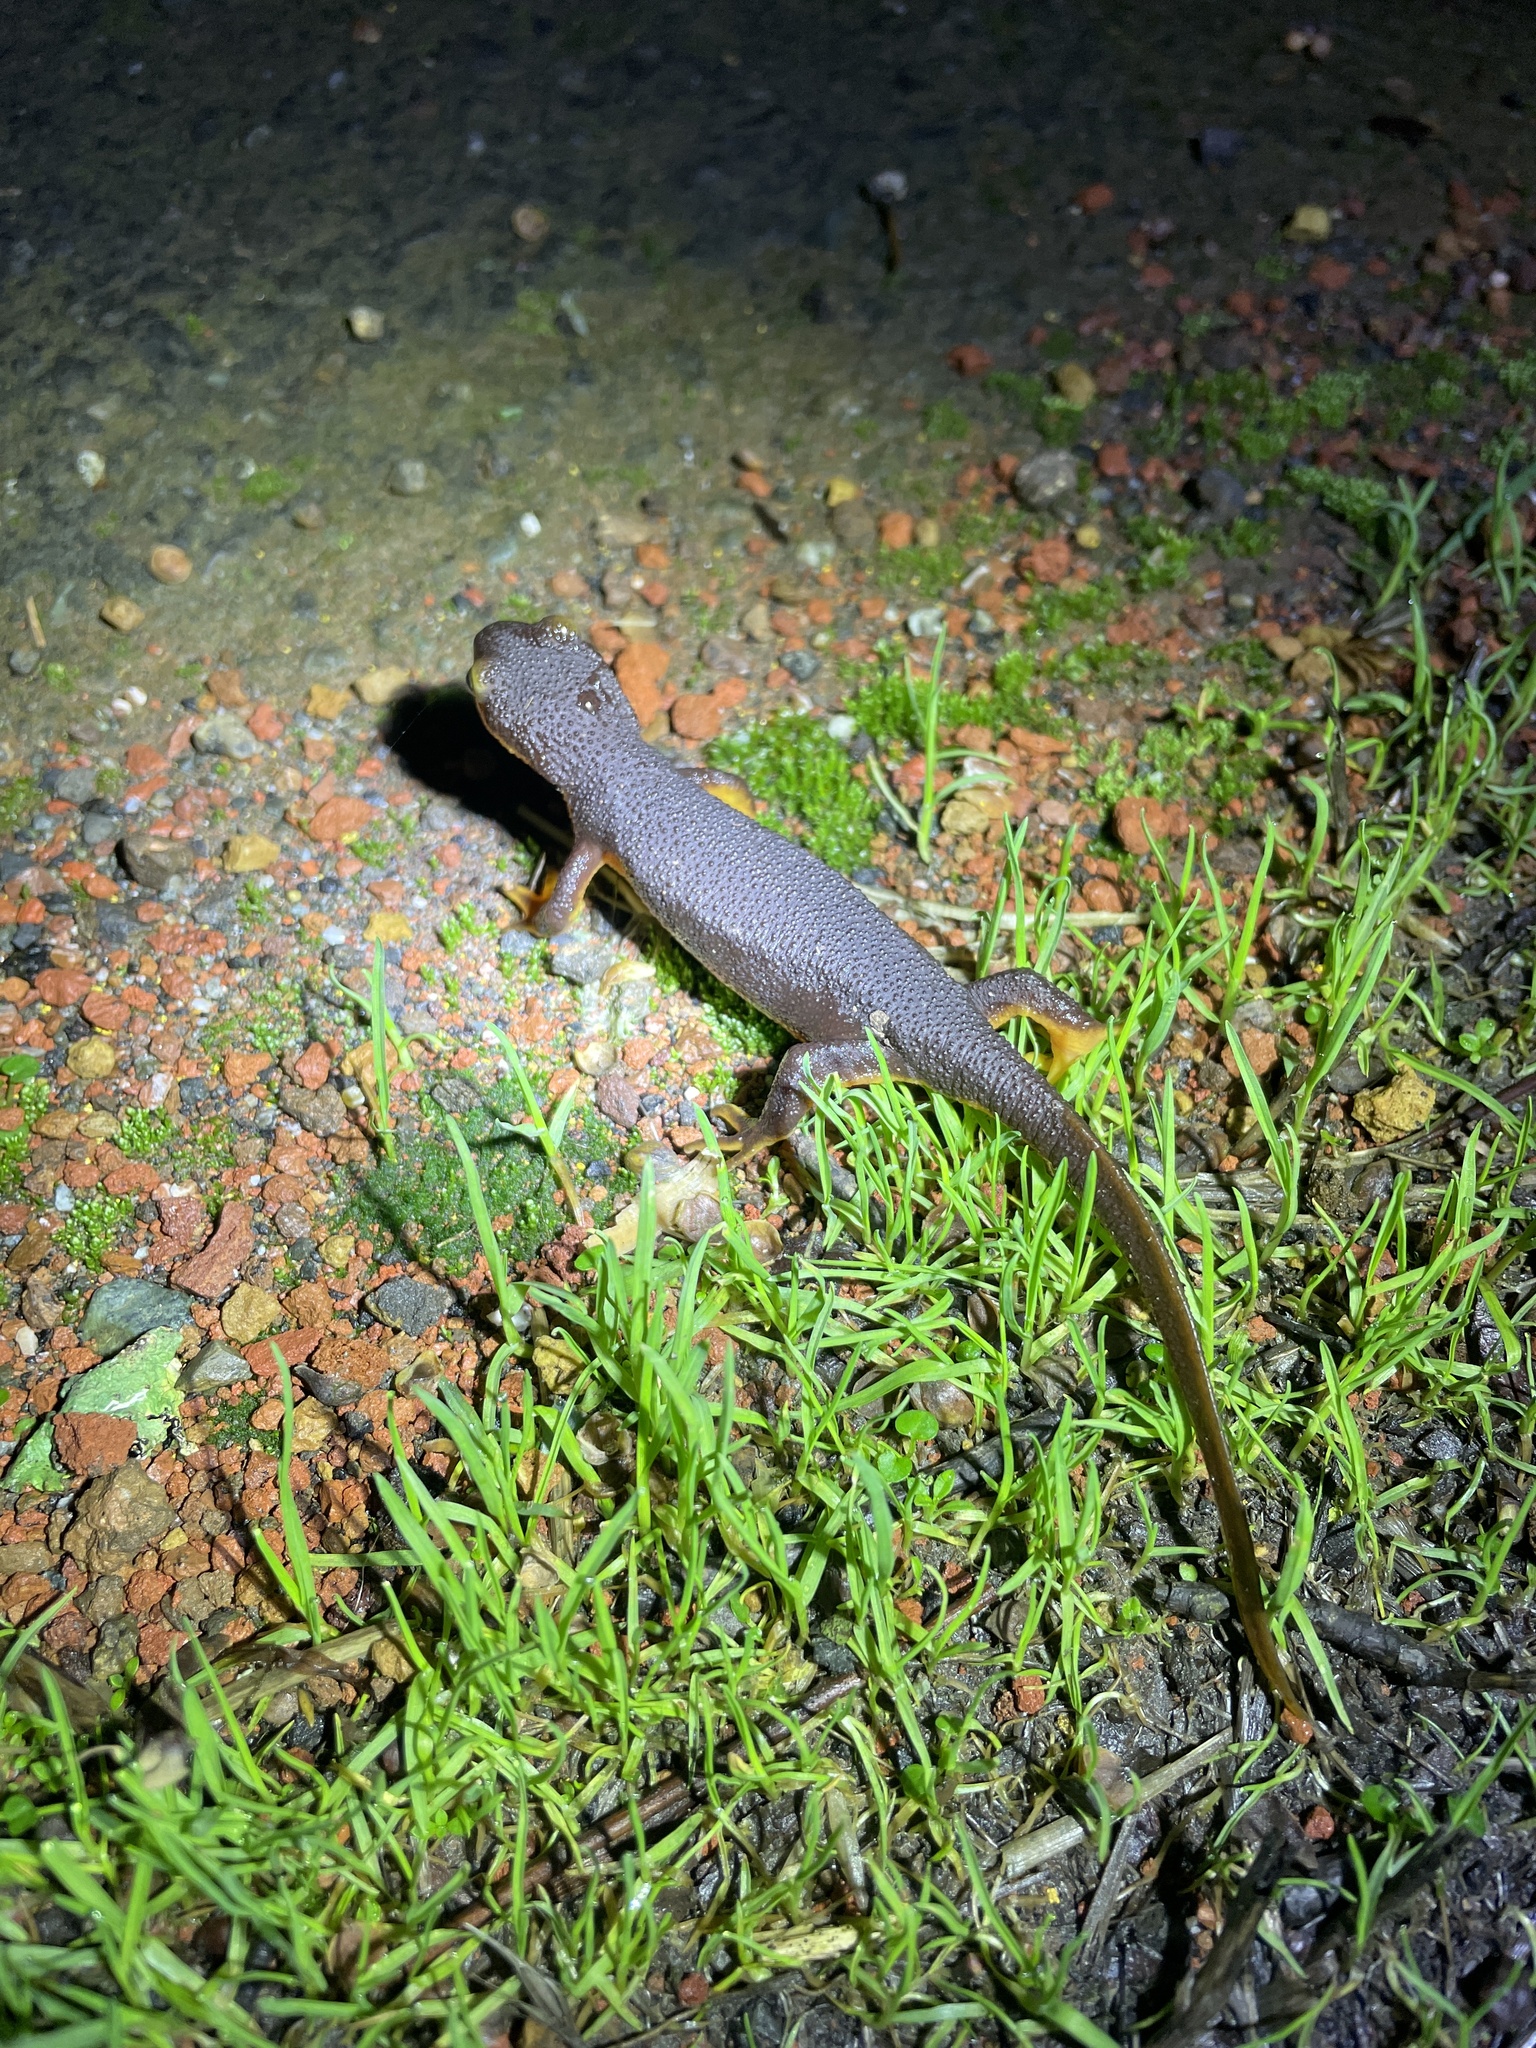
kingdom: Animalia
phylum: Chordata
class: Amphibia
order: Caudata
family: Salamandridae
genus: Taricha
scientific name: Taricha torosa
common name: California newt
